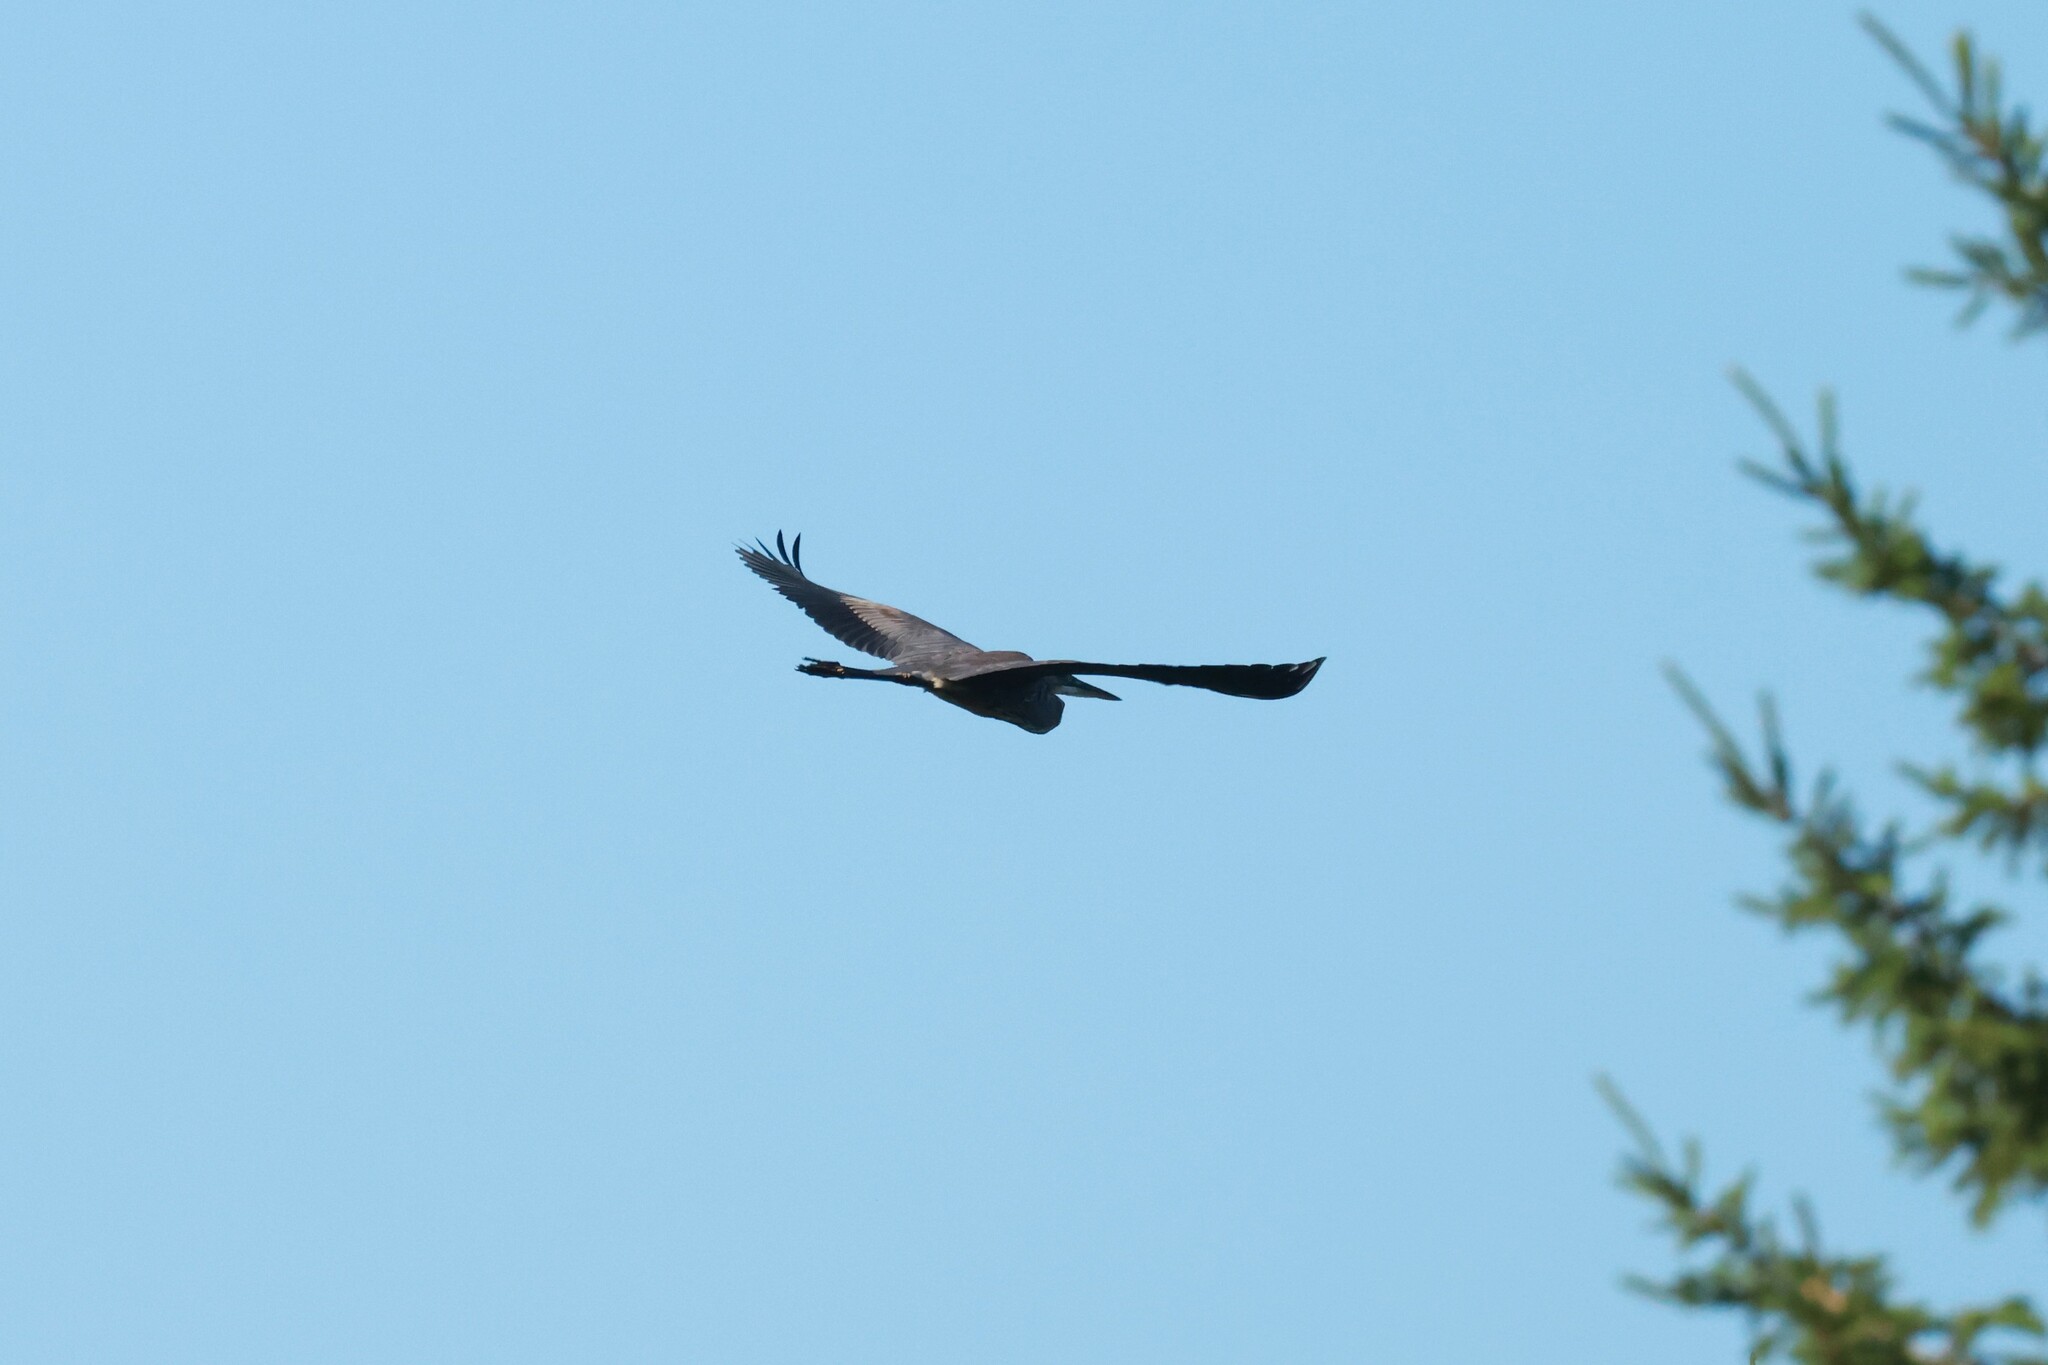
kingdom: Animalia
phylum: Chordata
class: Aves
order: Pelecaniformes
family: Ardeidae
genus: Ardea
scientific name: Ardea herodias
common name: Great blue heron
